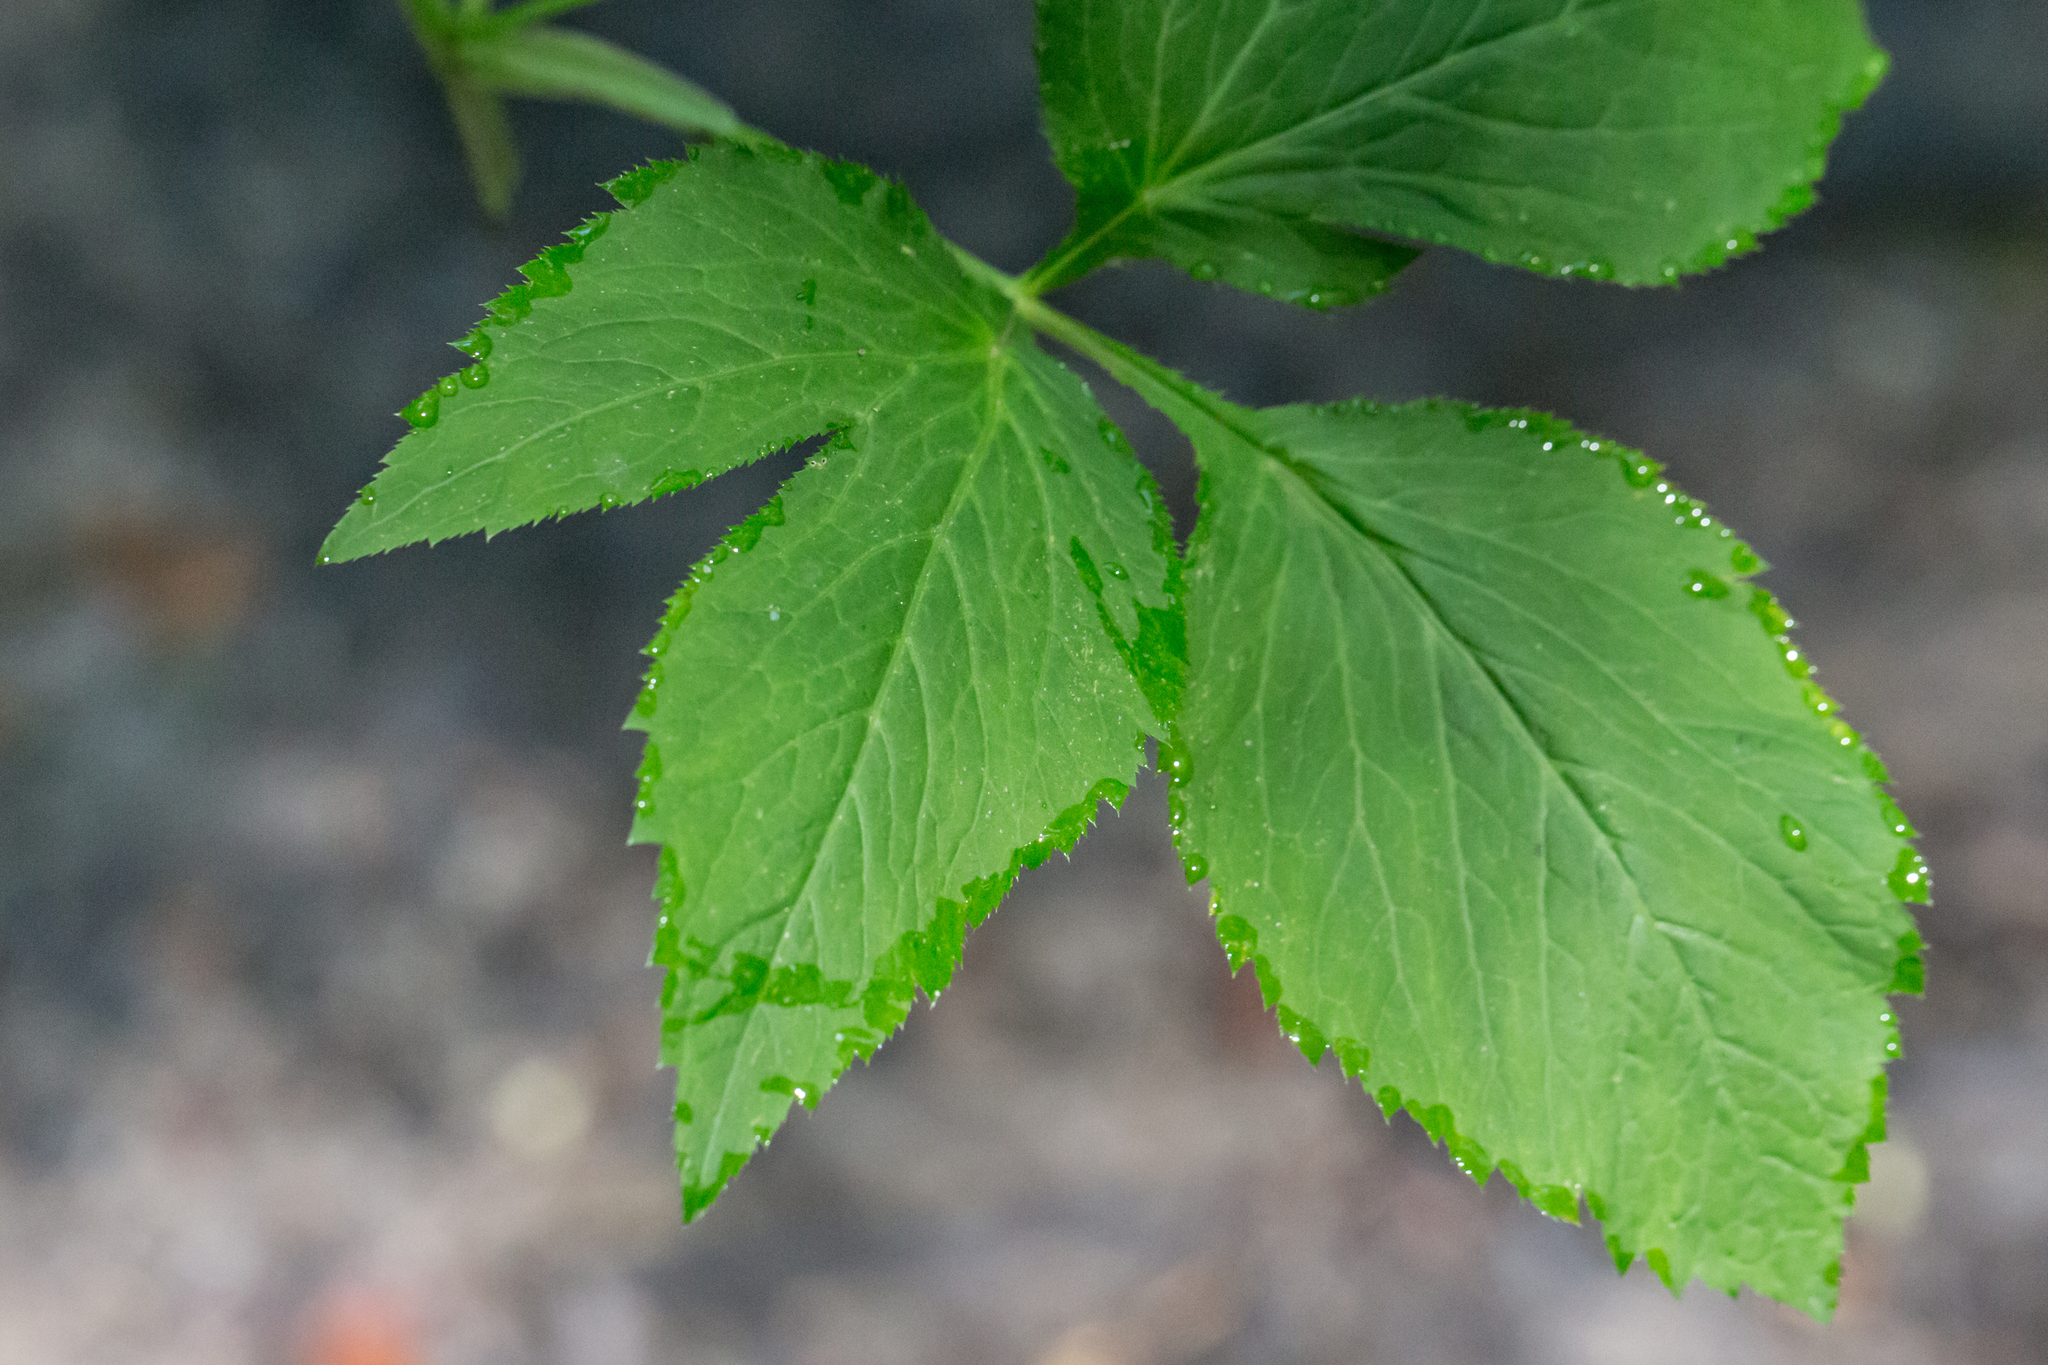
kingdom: Plantae
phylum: Tracheophyta
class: Magnoliopsida
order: Apiales
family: Apiaceae
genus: Cryptotaenia
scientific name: Cryptotaenia canadensis
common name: Honewort
